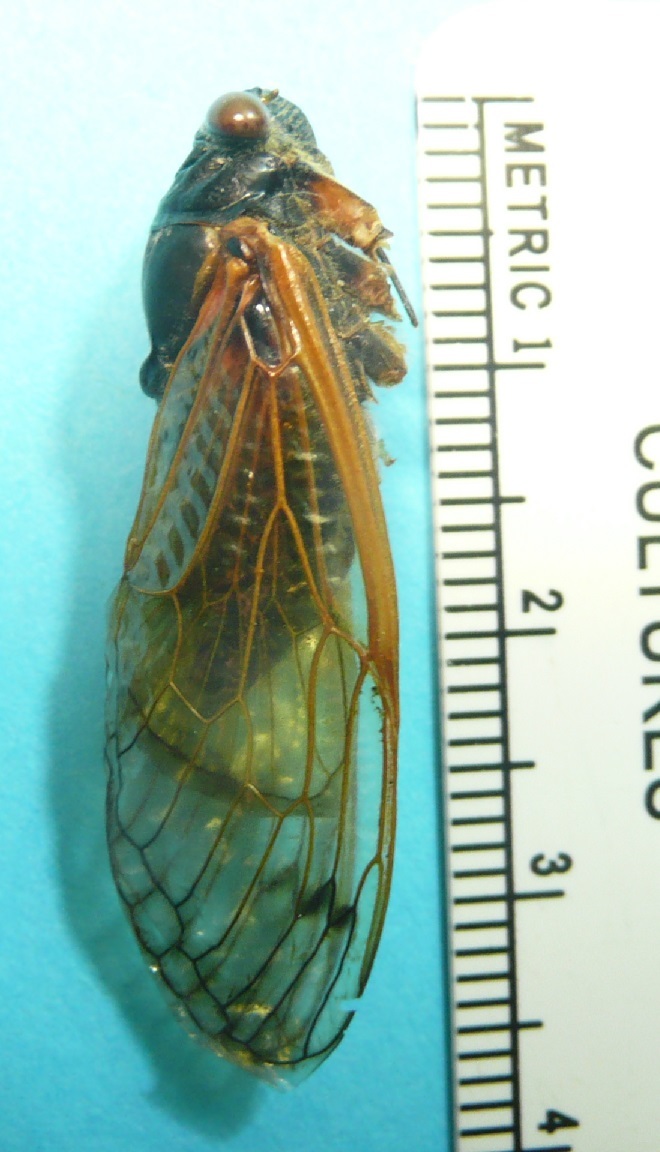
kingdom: Animalia
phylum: Arthropoda
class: Insecta
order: Hemiptera
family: Cicadidae
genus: Magicicada
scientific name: Magicicada tredecassini
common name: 13-year cicada
